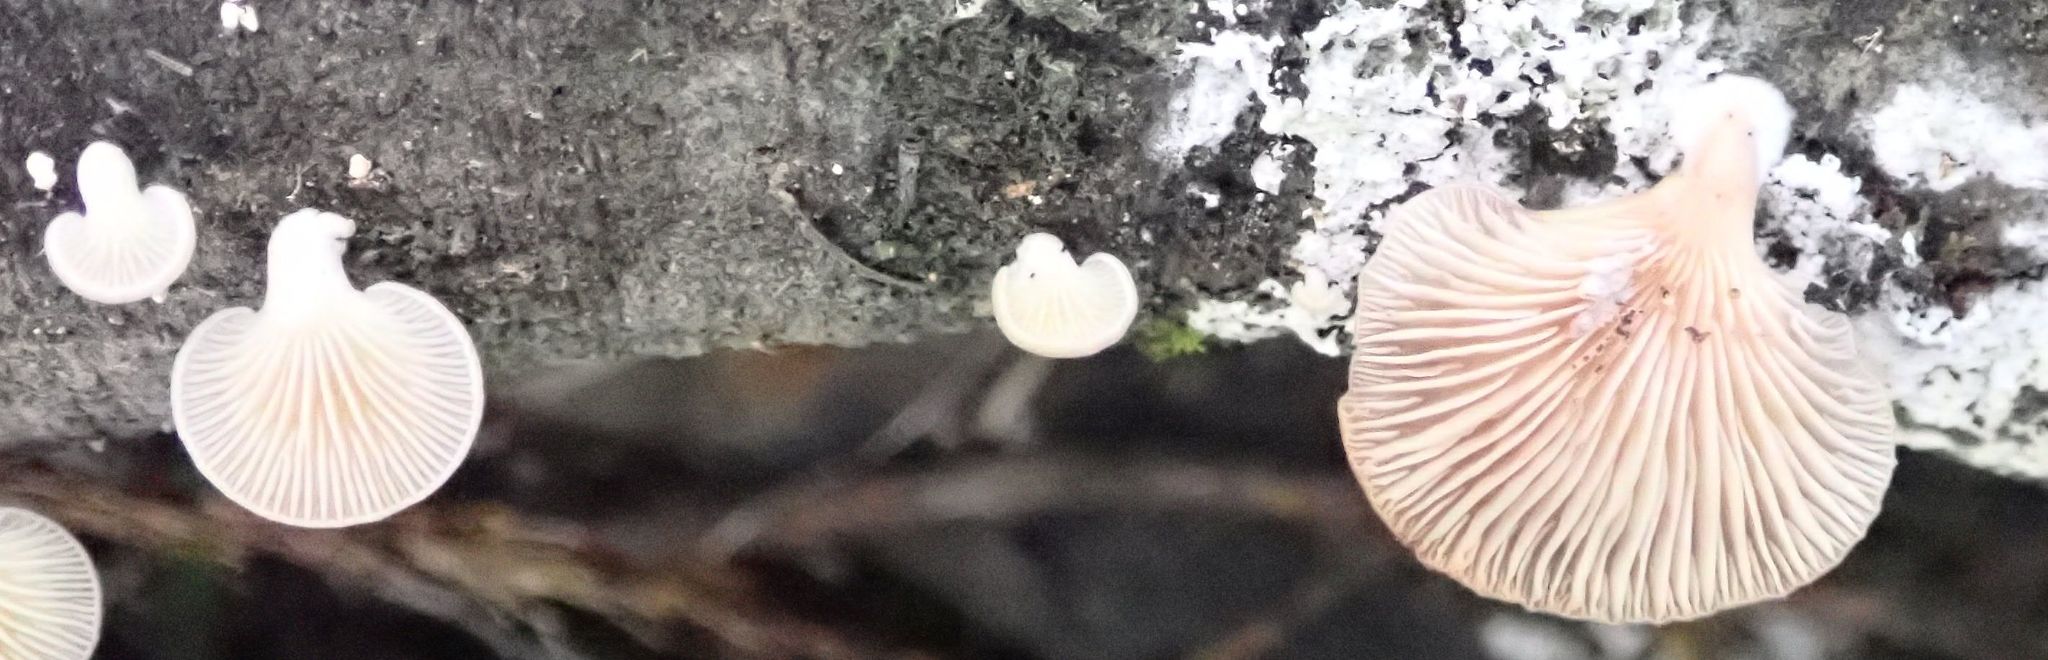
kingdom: Fungi
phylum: Basidiomycota
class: Agaricomycetes
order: Agaricales
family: Mycenaceae
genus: Panellus
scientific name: Panellus longinquus
